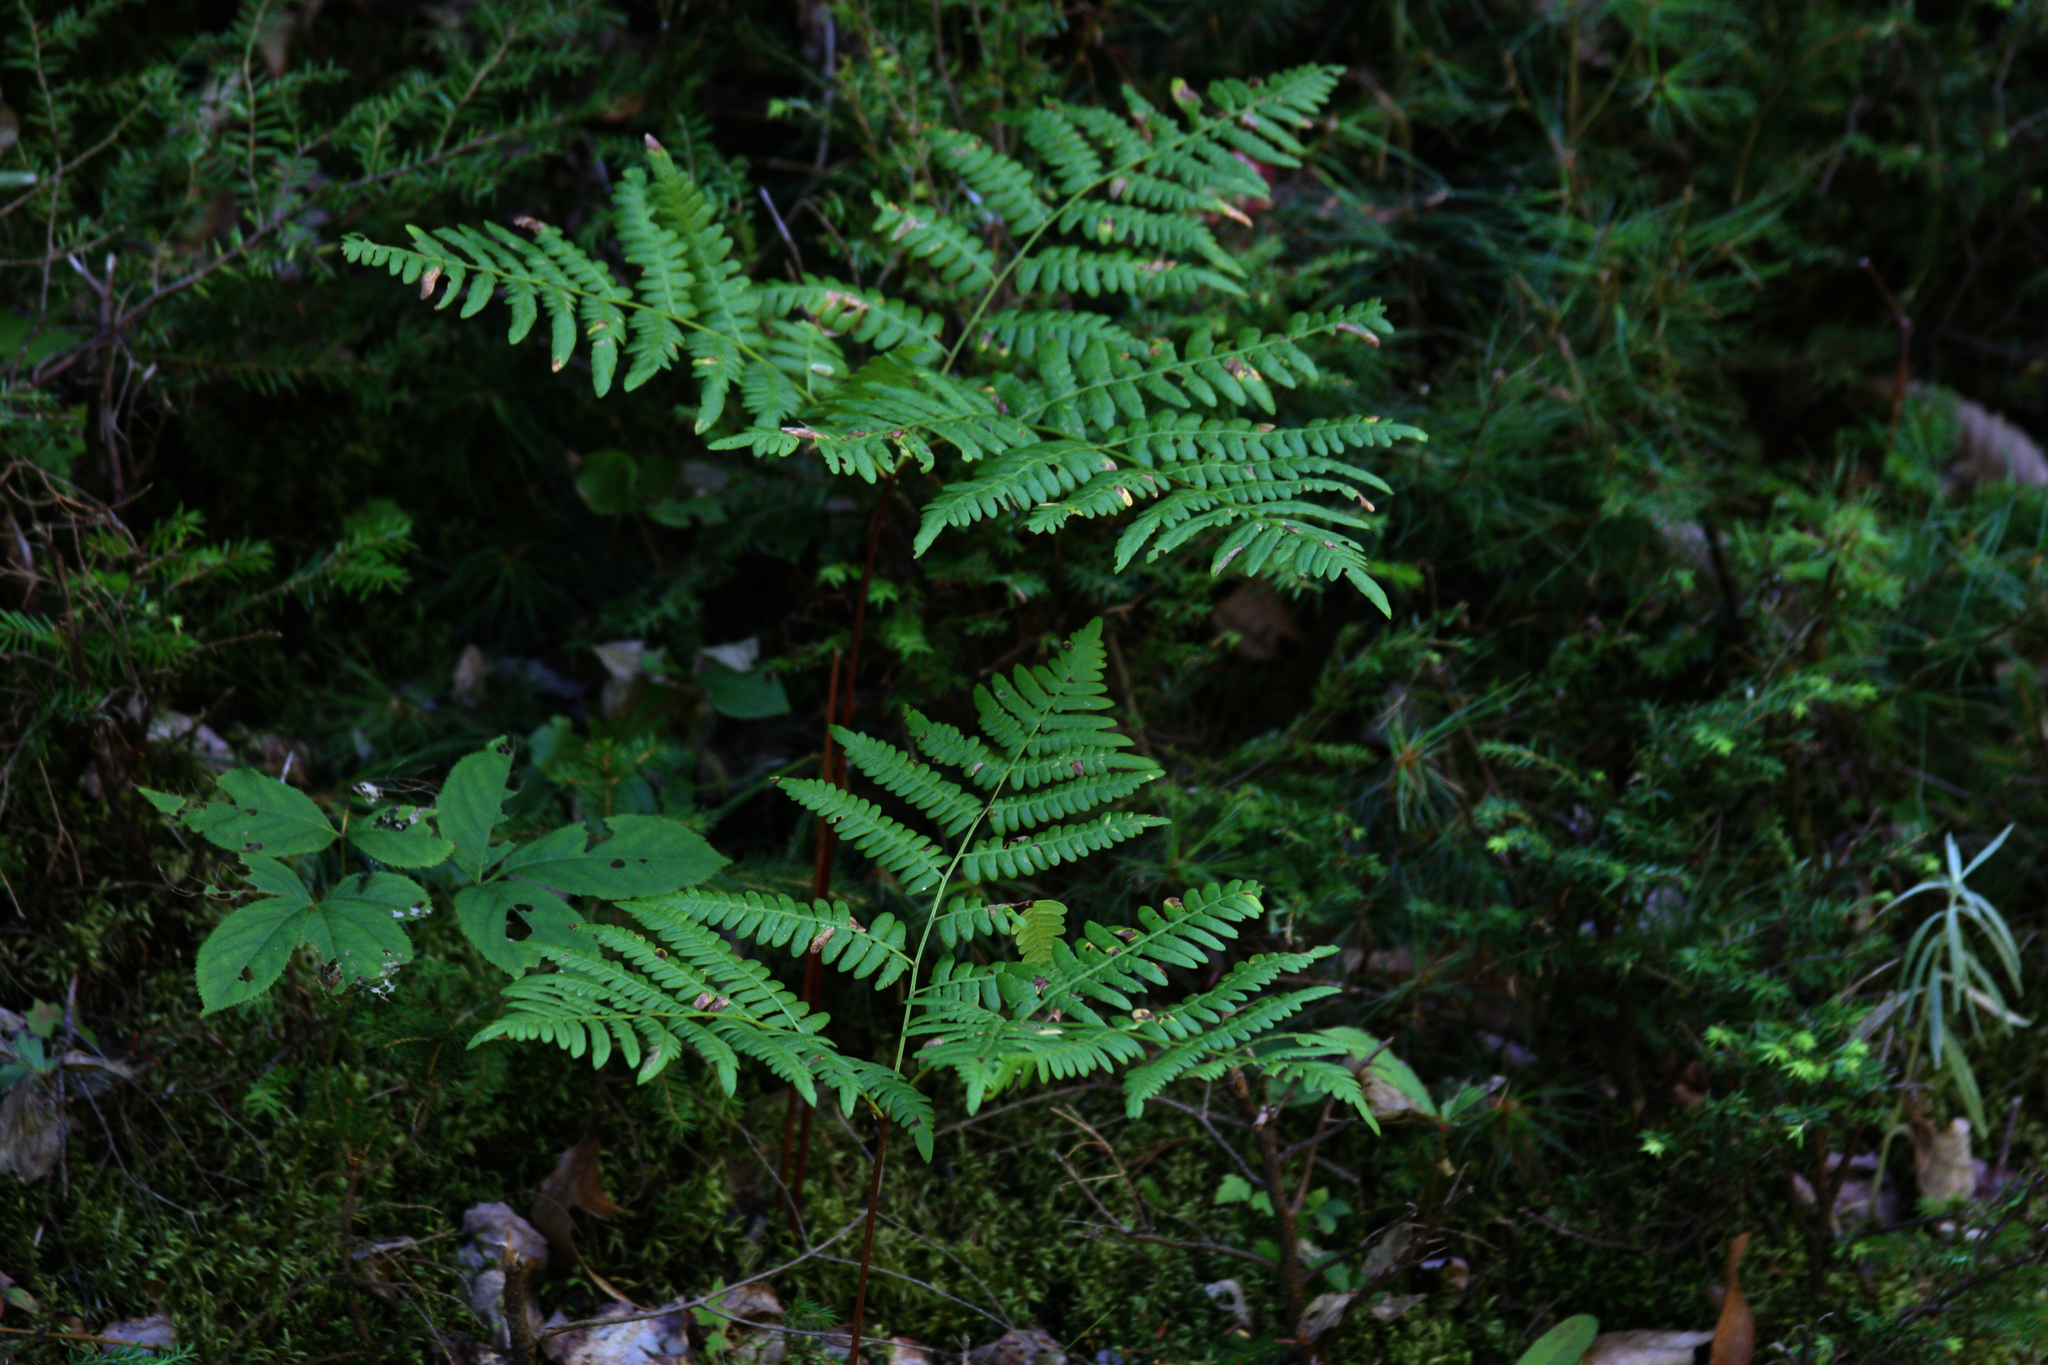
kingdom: Plantae
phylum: Tracheophyta
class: Polypodiopsida
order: Polypodiales
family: Dennstaedtiaceae
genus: Pteridium
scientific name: Pteridium aquilinum
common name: Bracken
